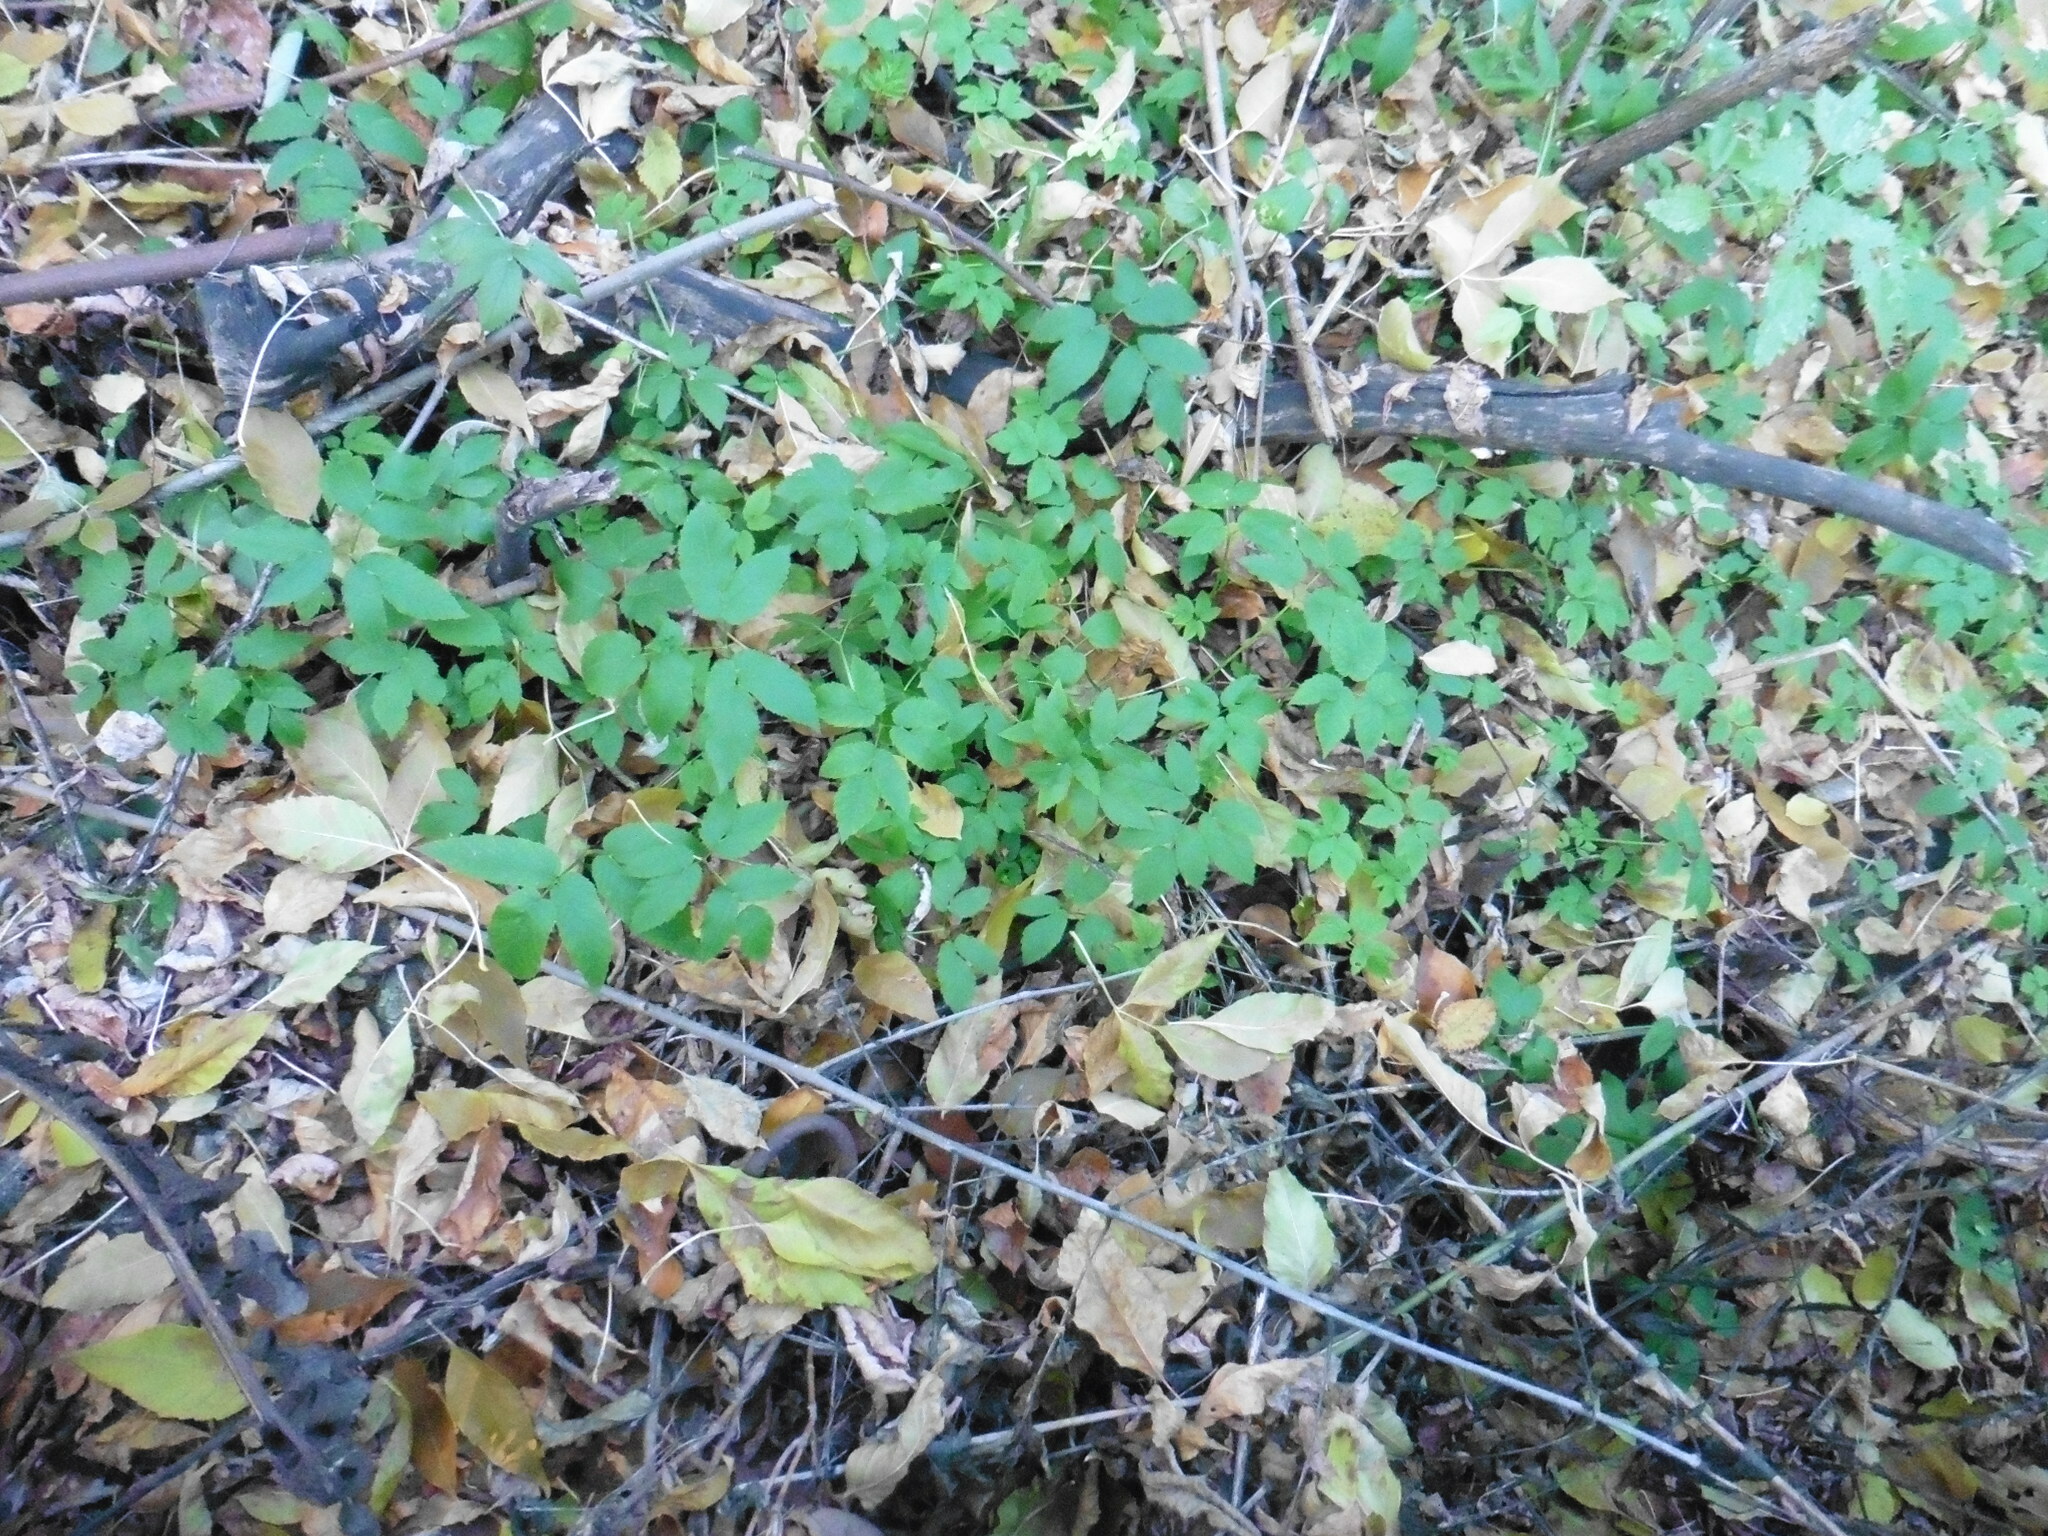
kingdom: Plantae
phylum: Tracheophyta
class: Magnoliopsida
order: Apiales
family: Apiaceae
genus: Aegopodium
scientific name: Aegopodium podagraria
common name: Ground-elder
